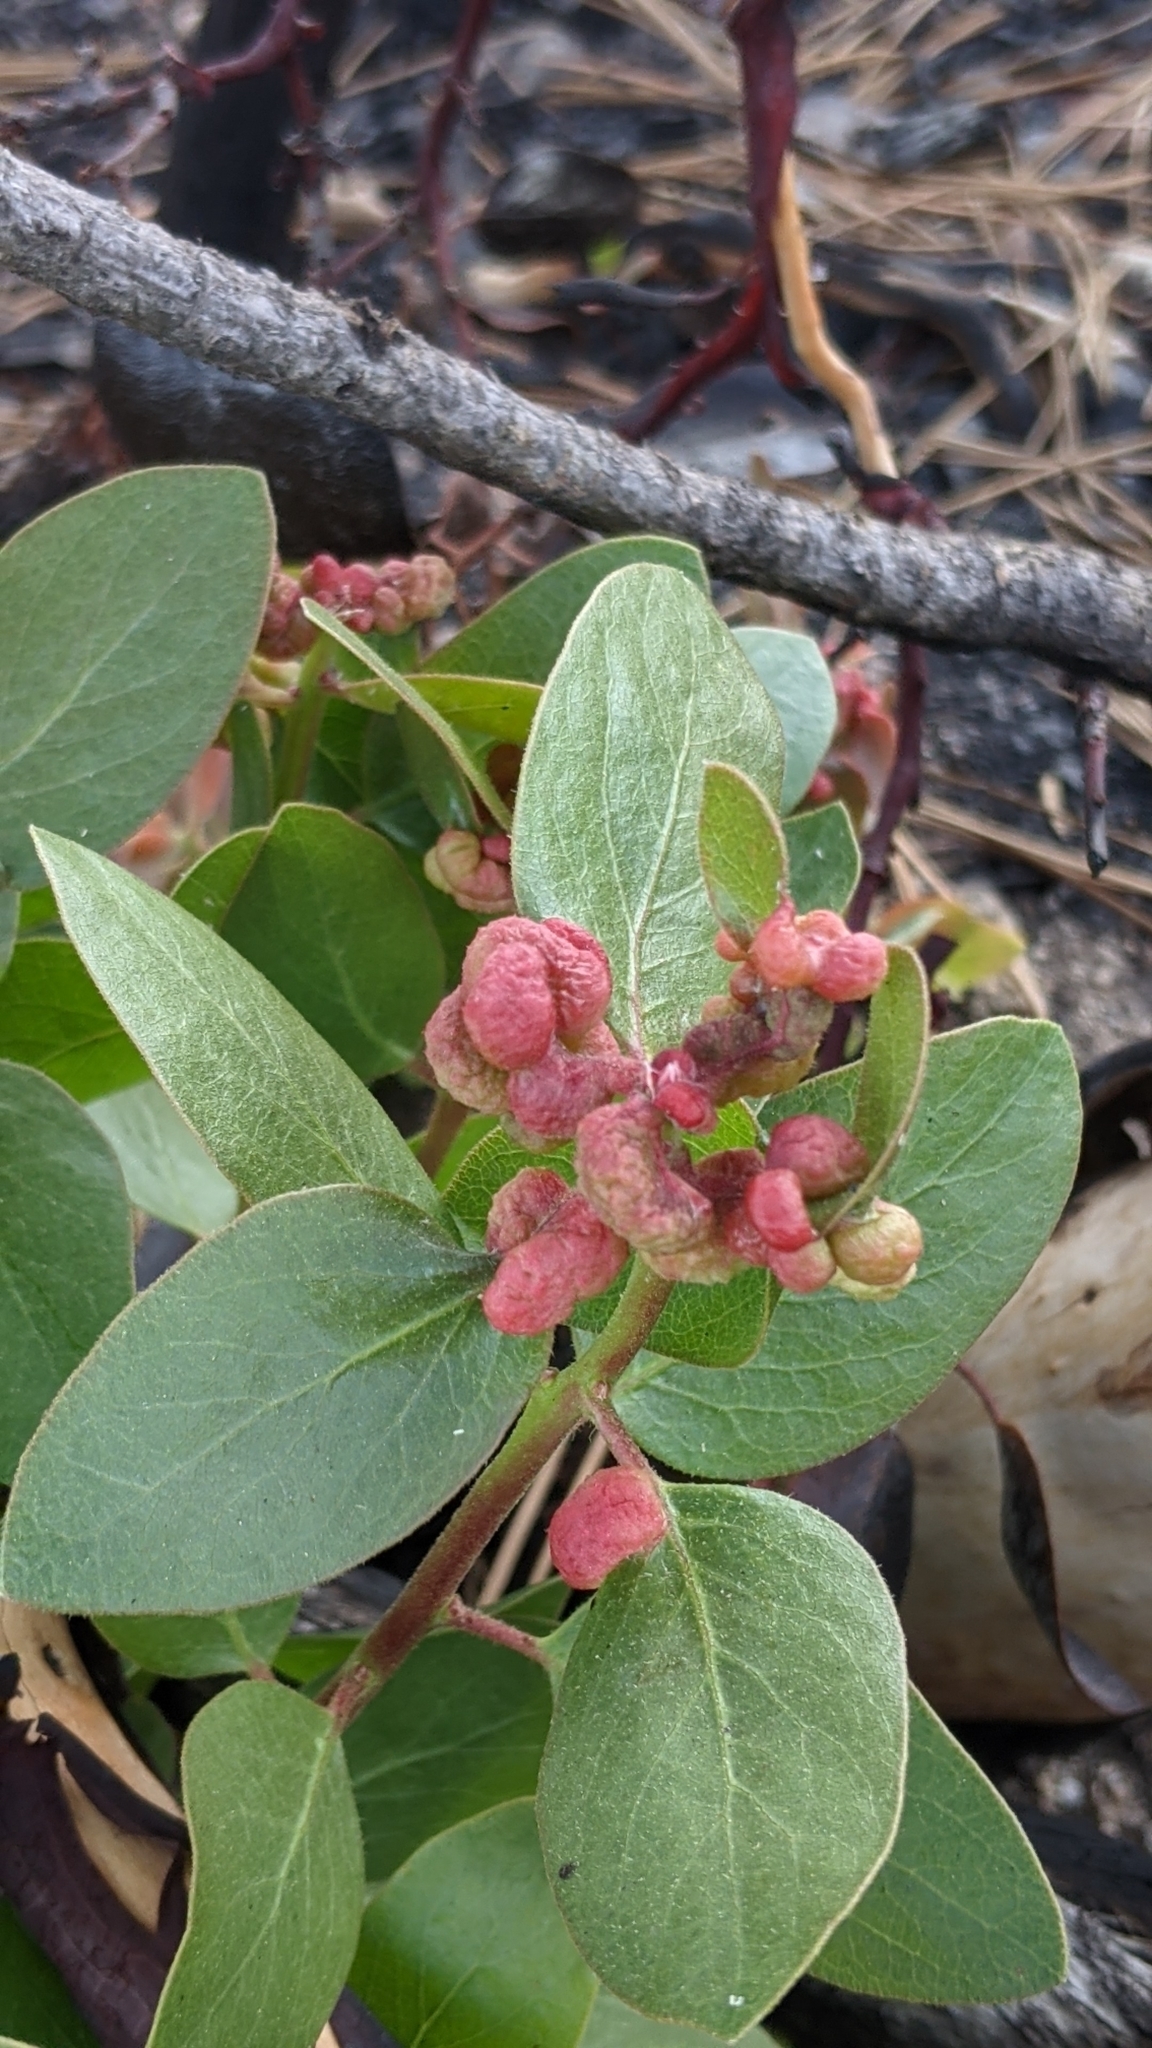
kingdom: Animalia
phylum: Arthropoda
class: Insecta
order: Hemiptera
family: Aphididae
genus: Tamalia
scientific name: Tamalia coweni
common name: Manzanita leafgall aphid
